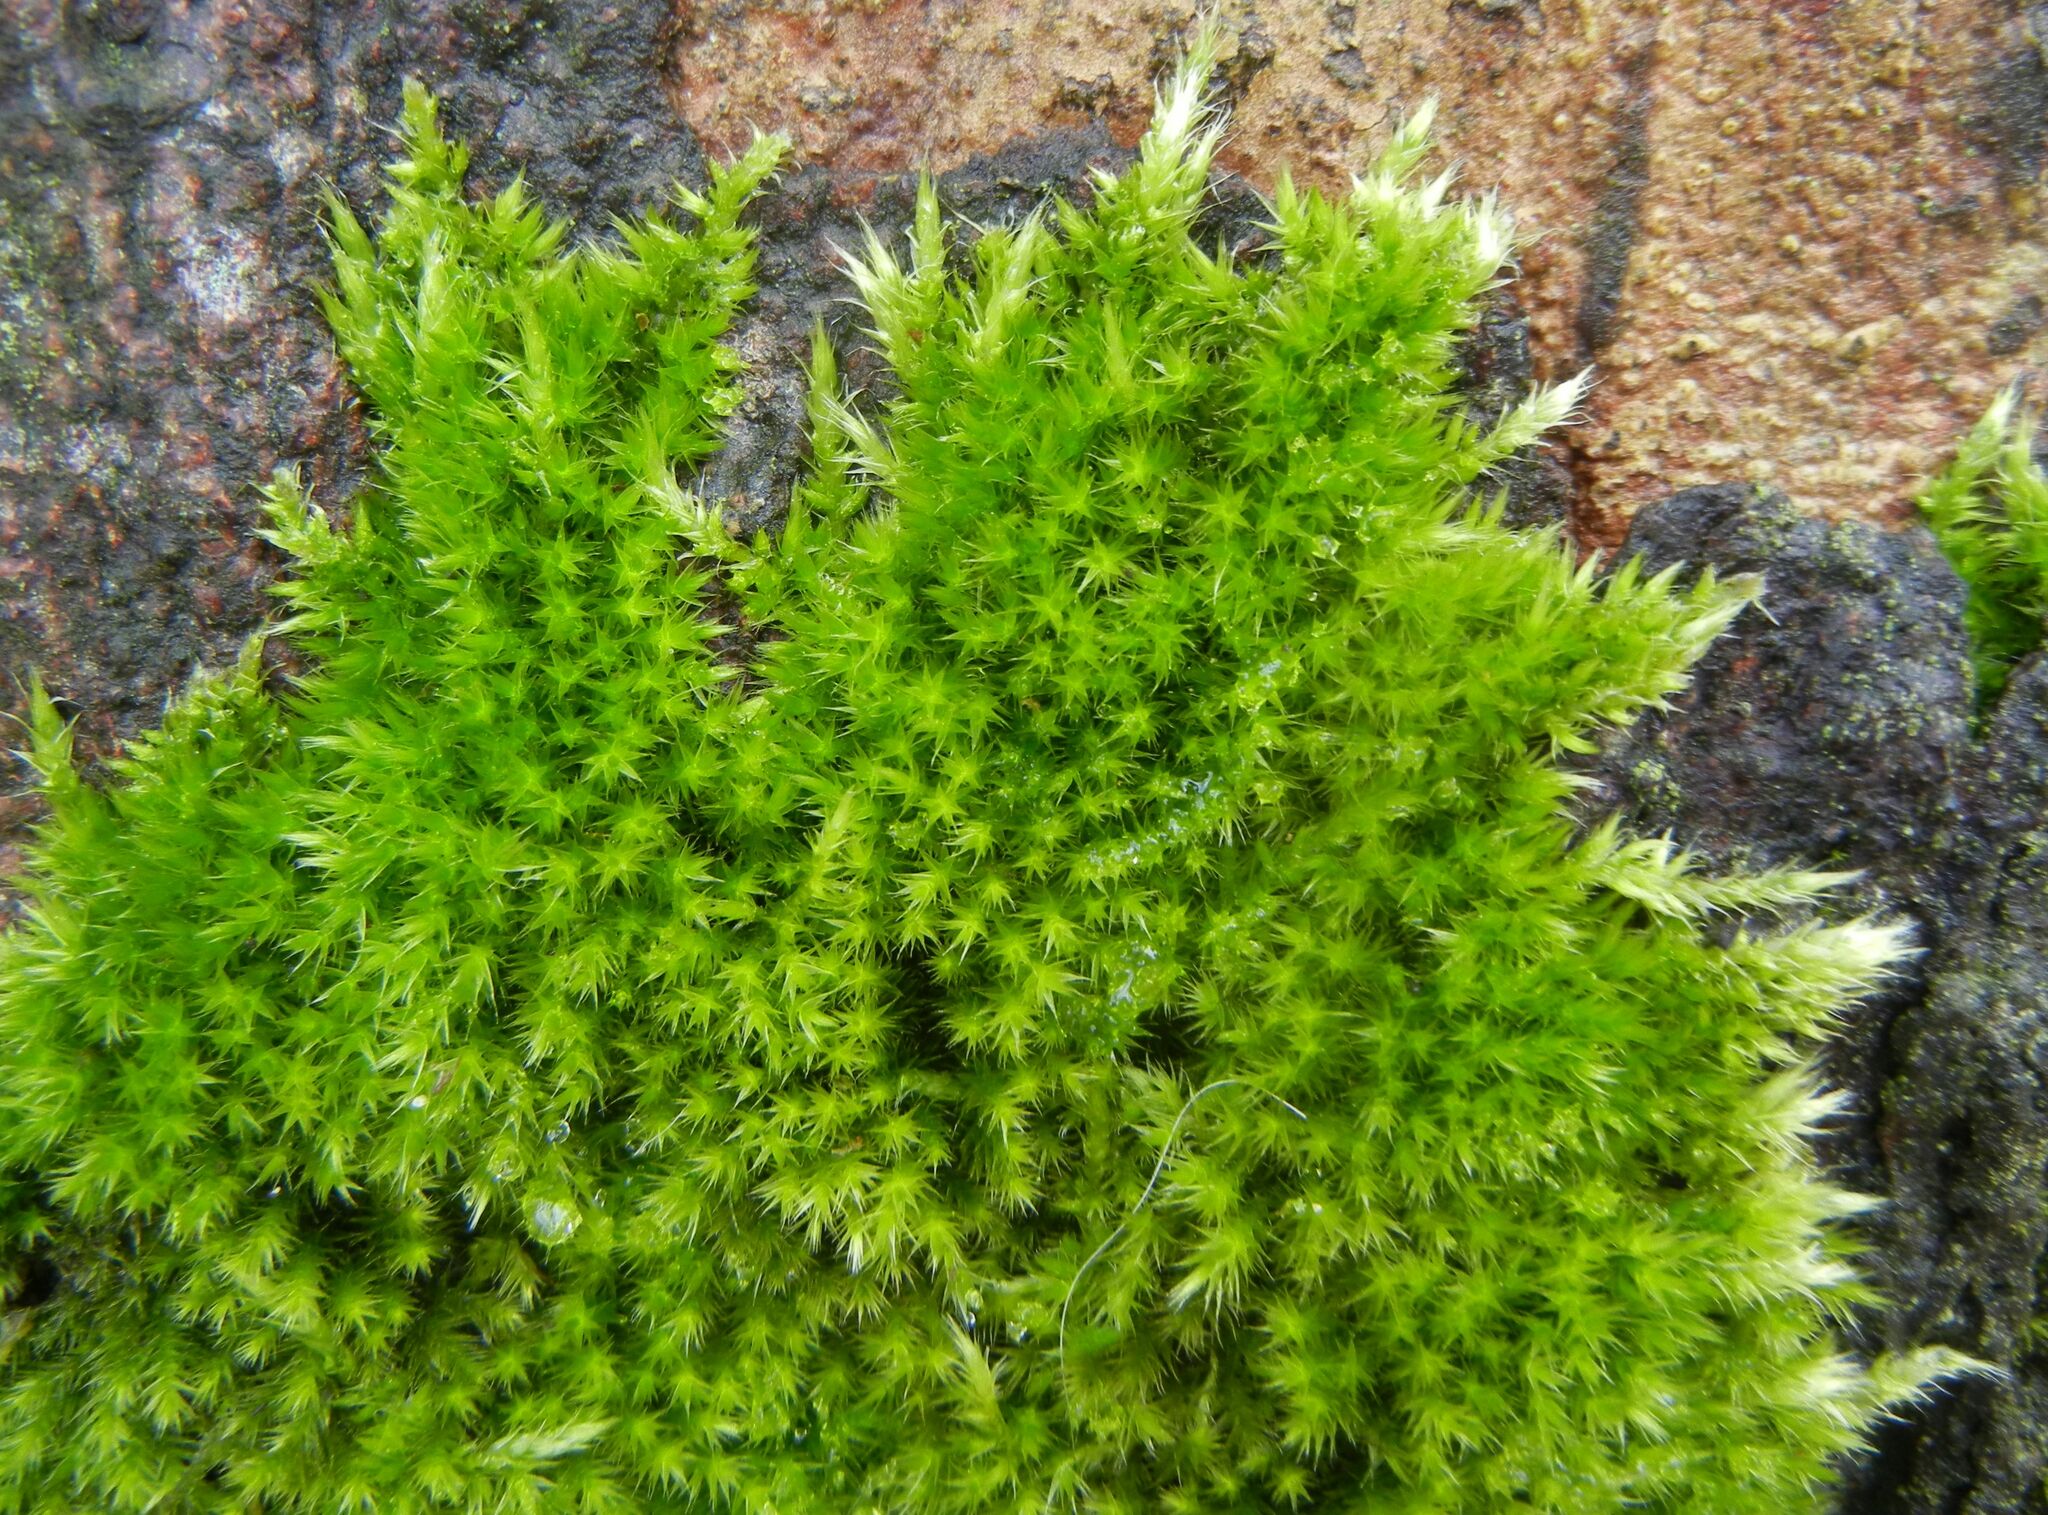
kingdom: Plantae
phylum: Bryophyta
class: Bryopsida
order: Hypnales
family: Brachytheciaceae
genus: Homalothecium
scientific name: Homalothecium sericeum
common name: Silky wall feather-moss
